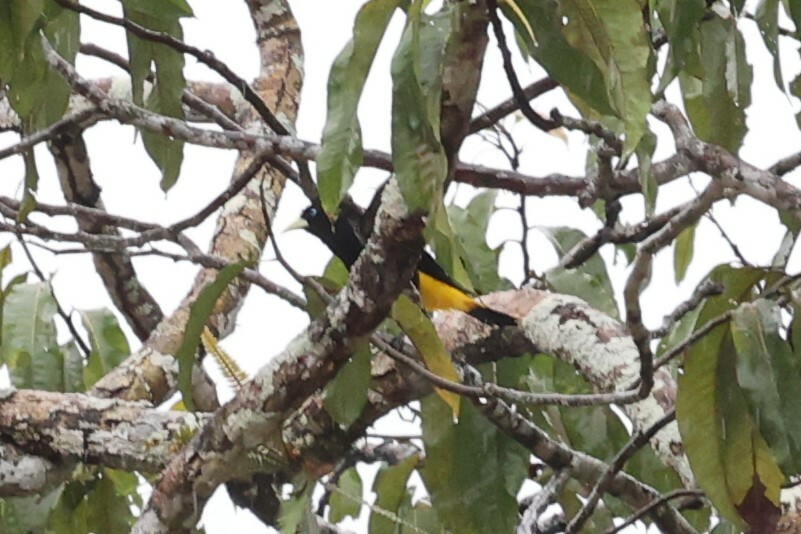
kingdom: Animalia
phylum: Chordata
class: Aves
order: Passeriformes
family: Icteridae
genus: Cacicus
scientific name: Cacicus cela
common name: Yellow-rumped cacique
